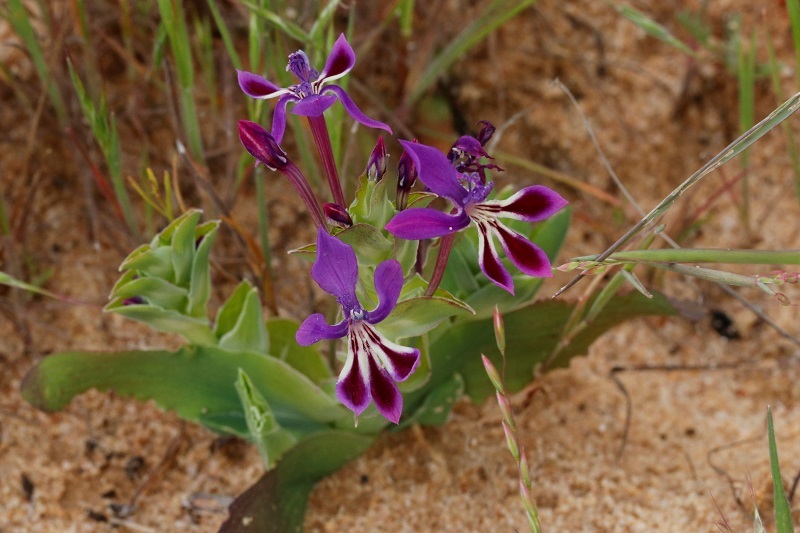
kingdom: Plantae
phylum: Tracheophyta
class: Liliopsida
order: Asparagales
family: Iridaceae
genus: Lapeirousia
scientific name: Lapeirousia jacquinii
